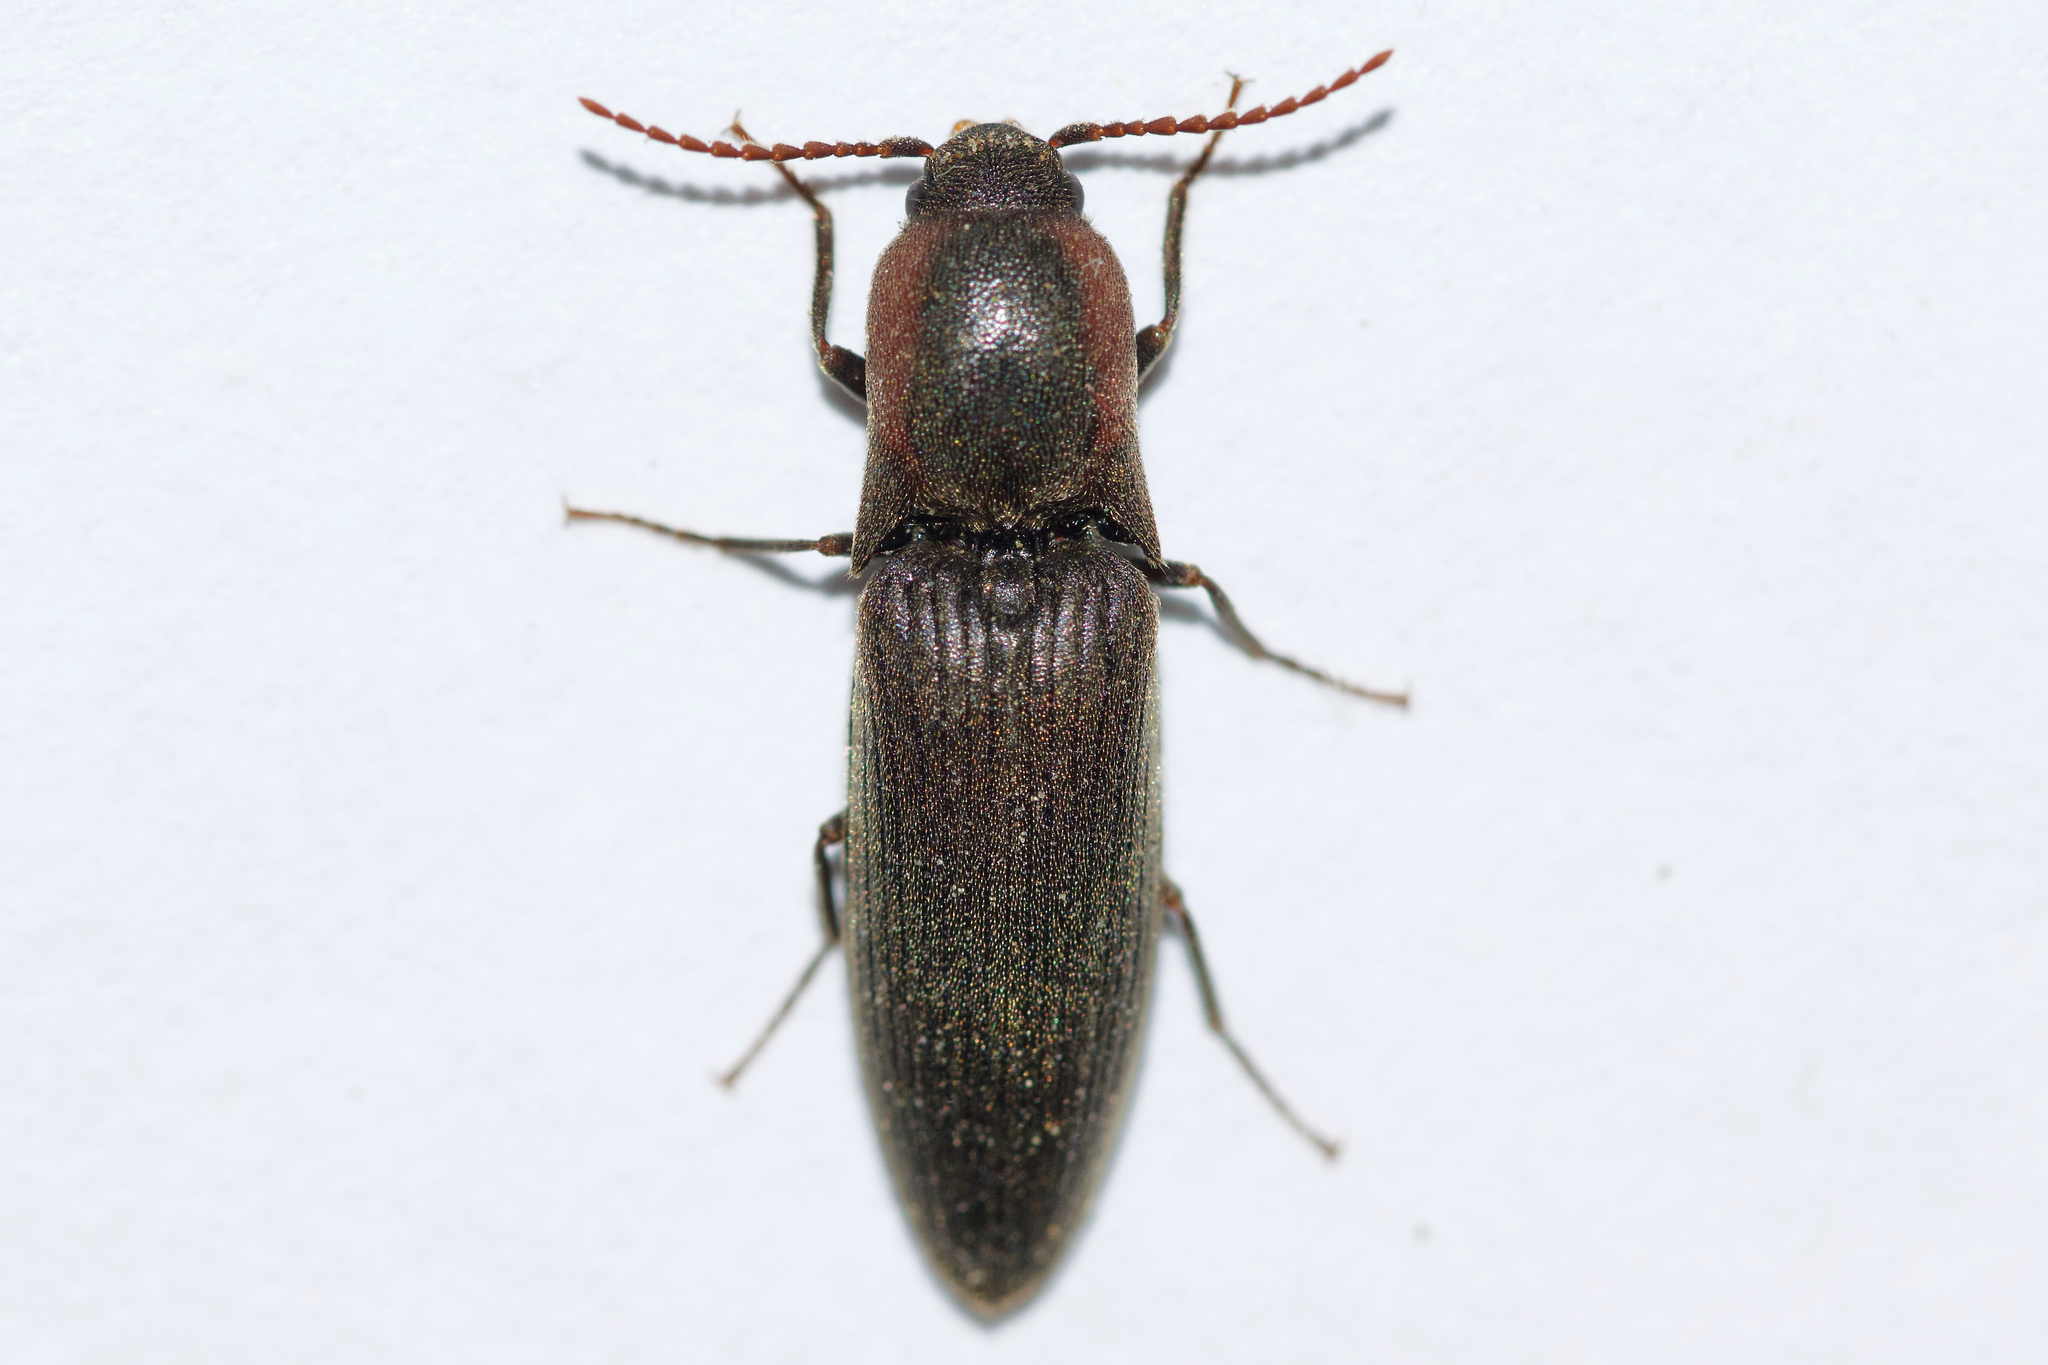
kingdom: Animalia
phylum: Arthropoda
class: Insecta
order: Coleoptera
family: Elateridae
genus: Agriotes
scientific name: Agriotes fucosus
